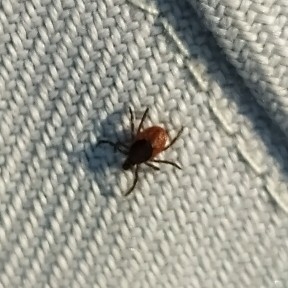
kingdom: Animalia
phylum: Arthropoda
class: Arachnida
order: Ixodida
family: Ixodidae
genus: Ixodes
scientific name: Ixodes persulcatus
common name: Taiga tick
